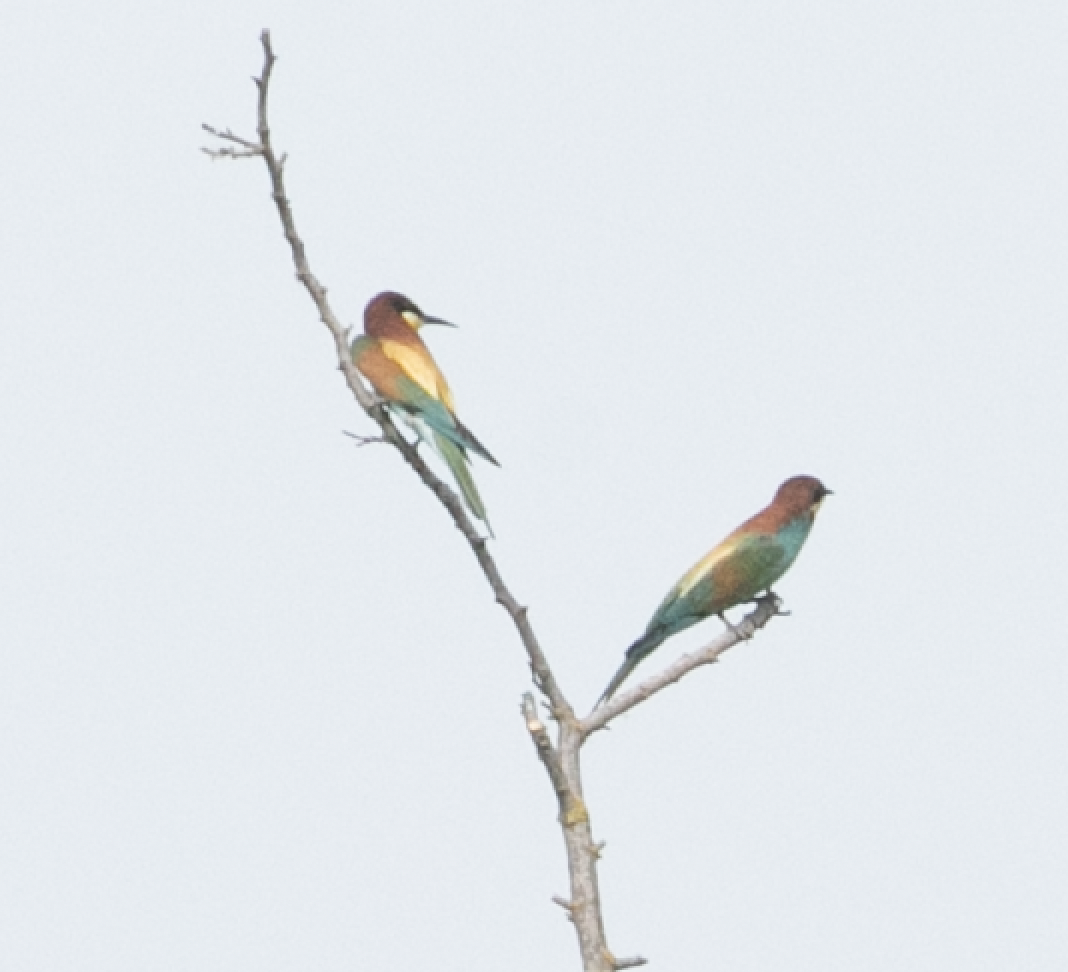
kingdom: Animalia
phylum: Chordata
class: Aves
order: Coraciiformes
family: Meropidae
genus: Merops
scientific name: Merops apiaster
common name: European bee-eater
